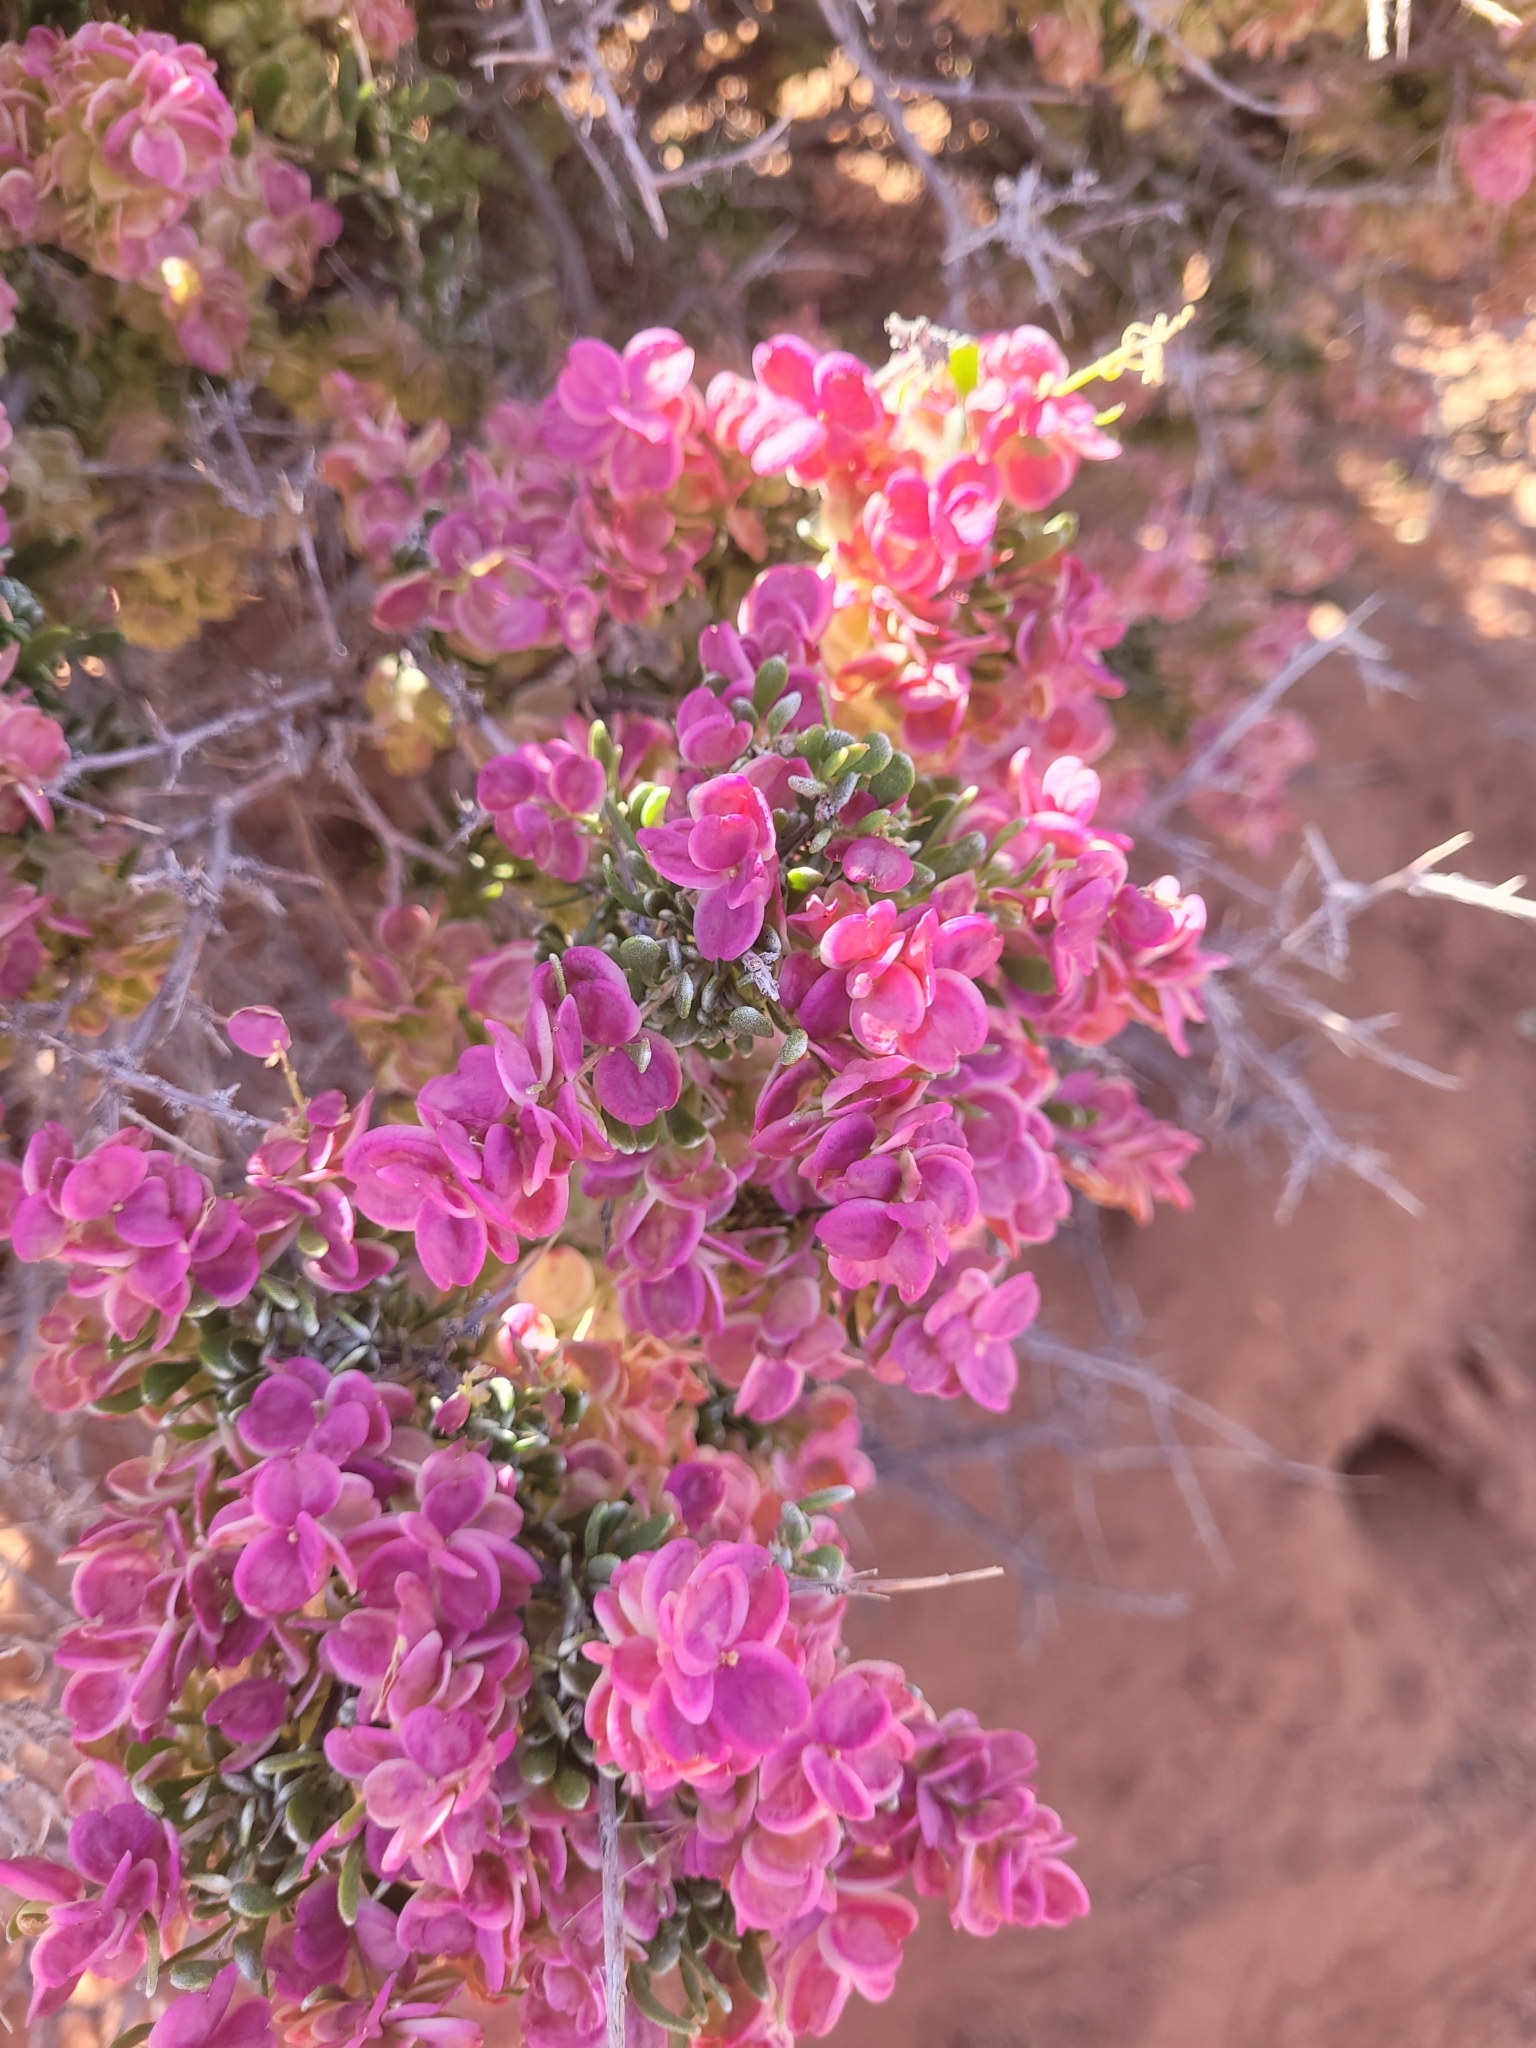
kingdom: Plantae
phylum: Tracheophyta
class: Magnoliopsida
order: Caryophyllales
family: Amaranthaceae
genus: Grayia
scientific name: Grayia spinosa
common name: Spiny hopsage
